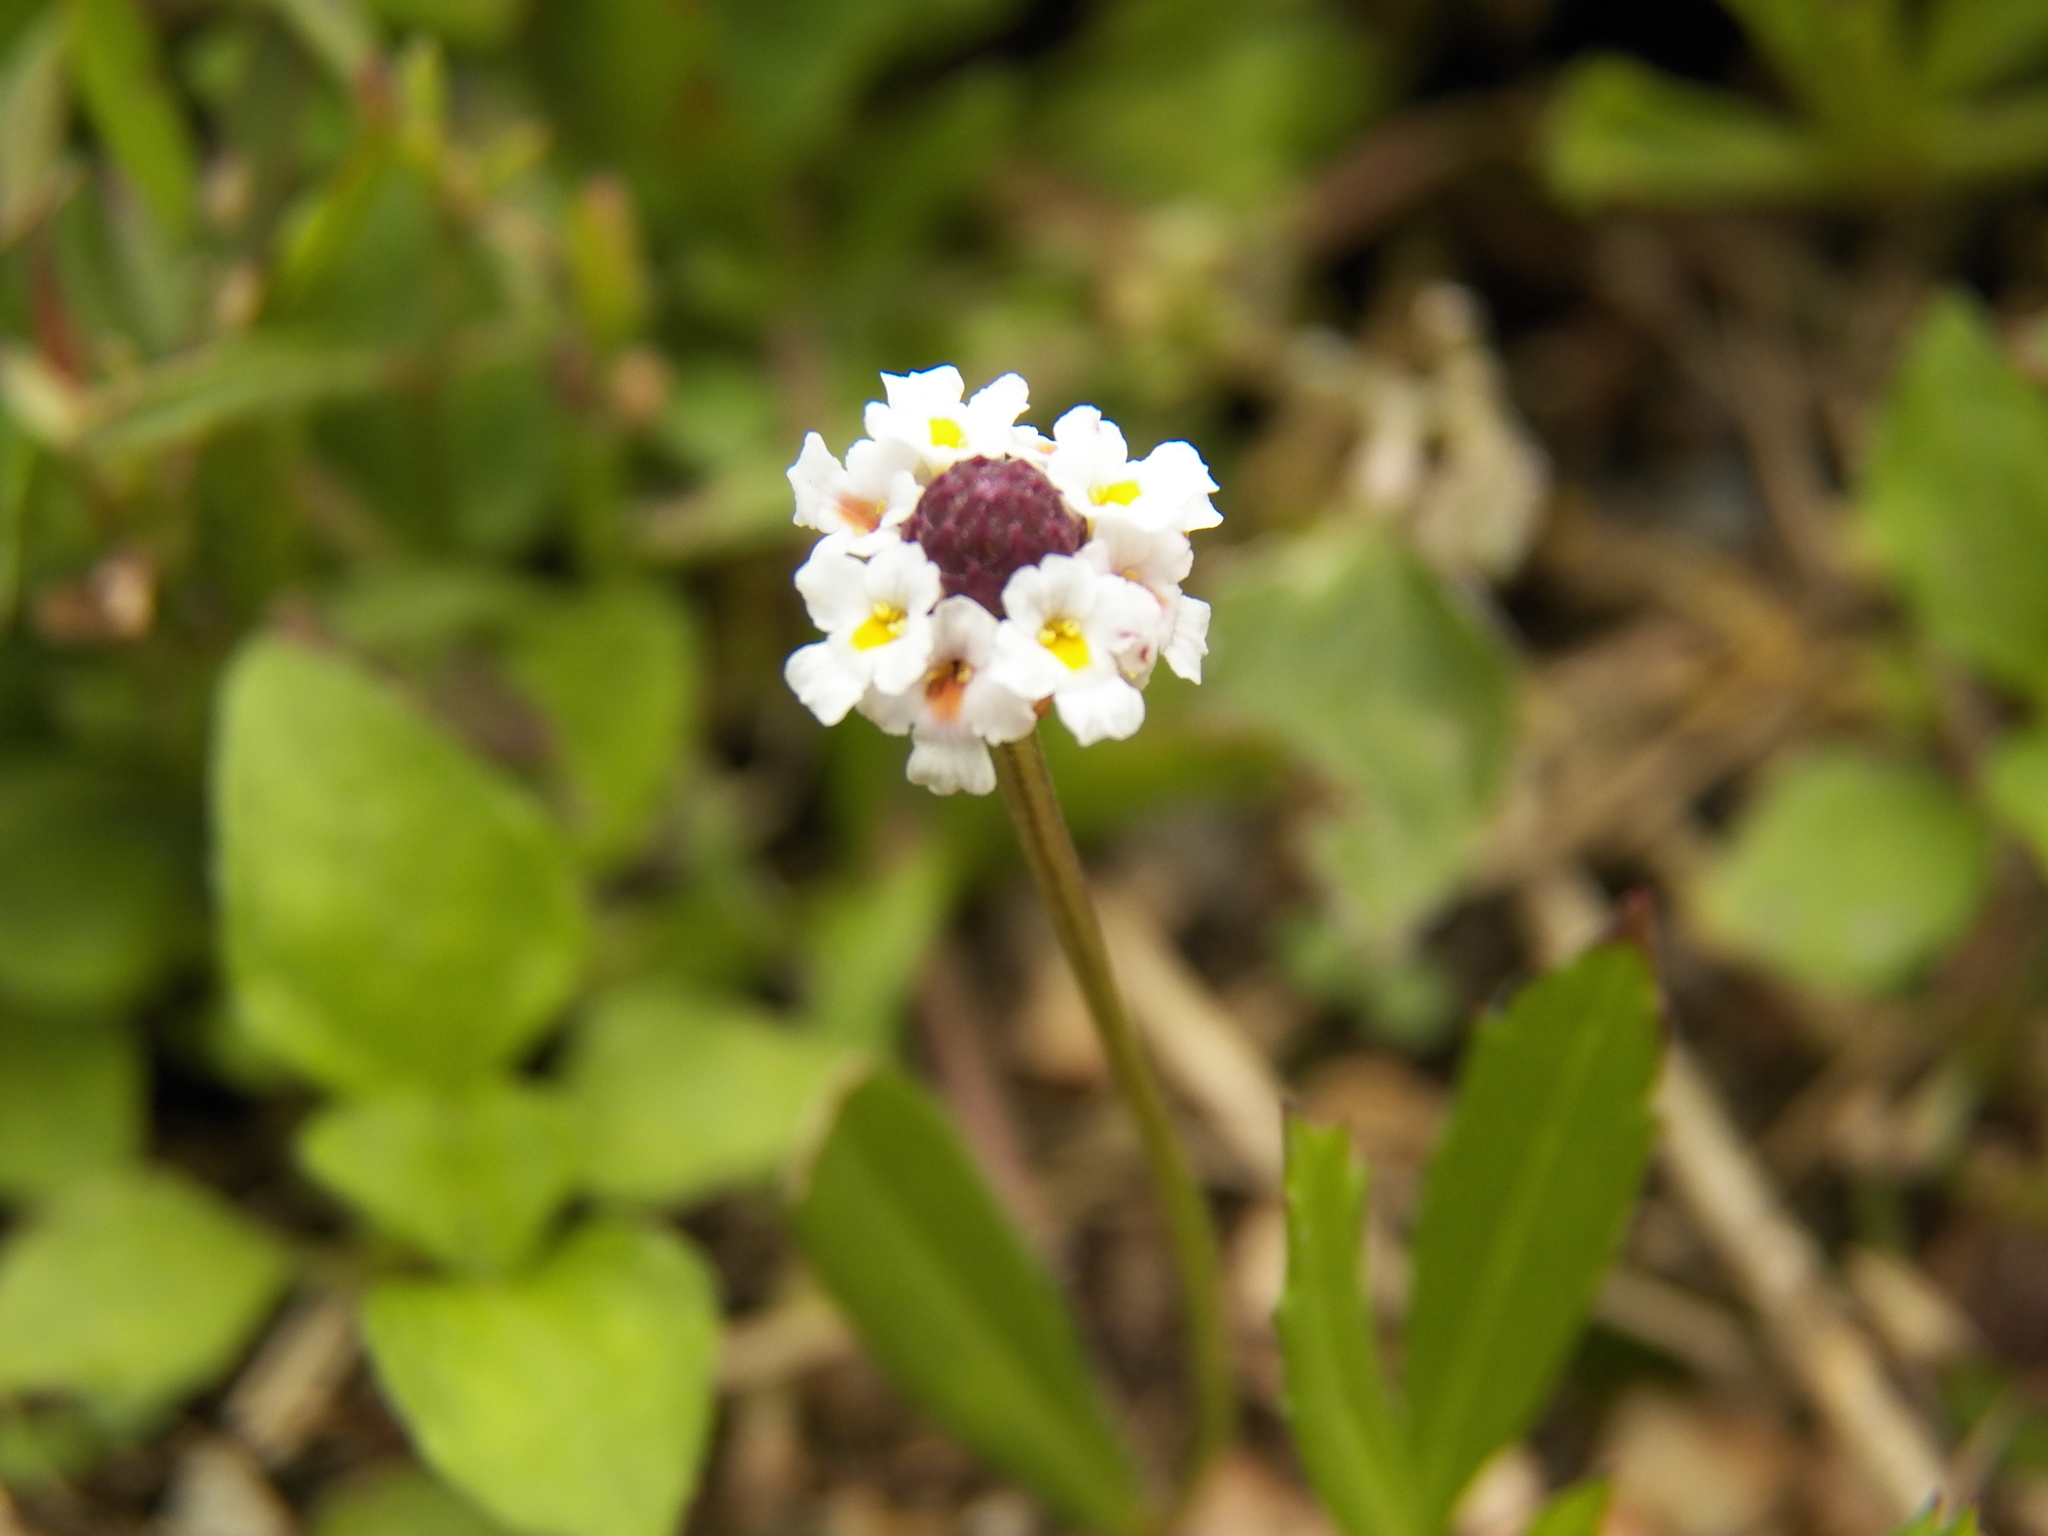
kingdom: Plantae
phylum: Tracheophyta
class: Magnoliopsida
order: Lamiales
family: Verbenaceae
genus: Phyla
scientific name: Phyla nodiflora
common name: Frogfruit
